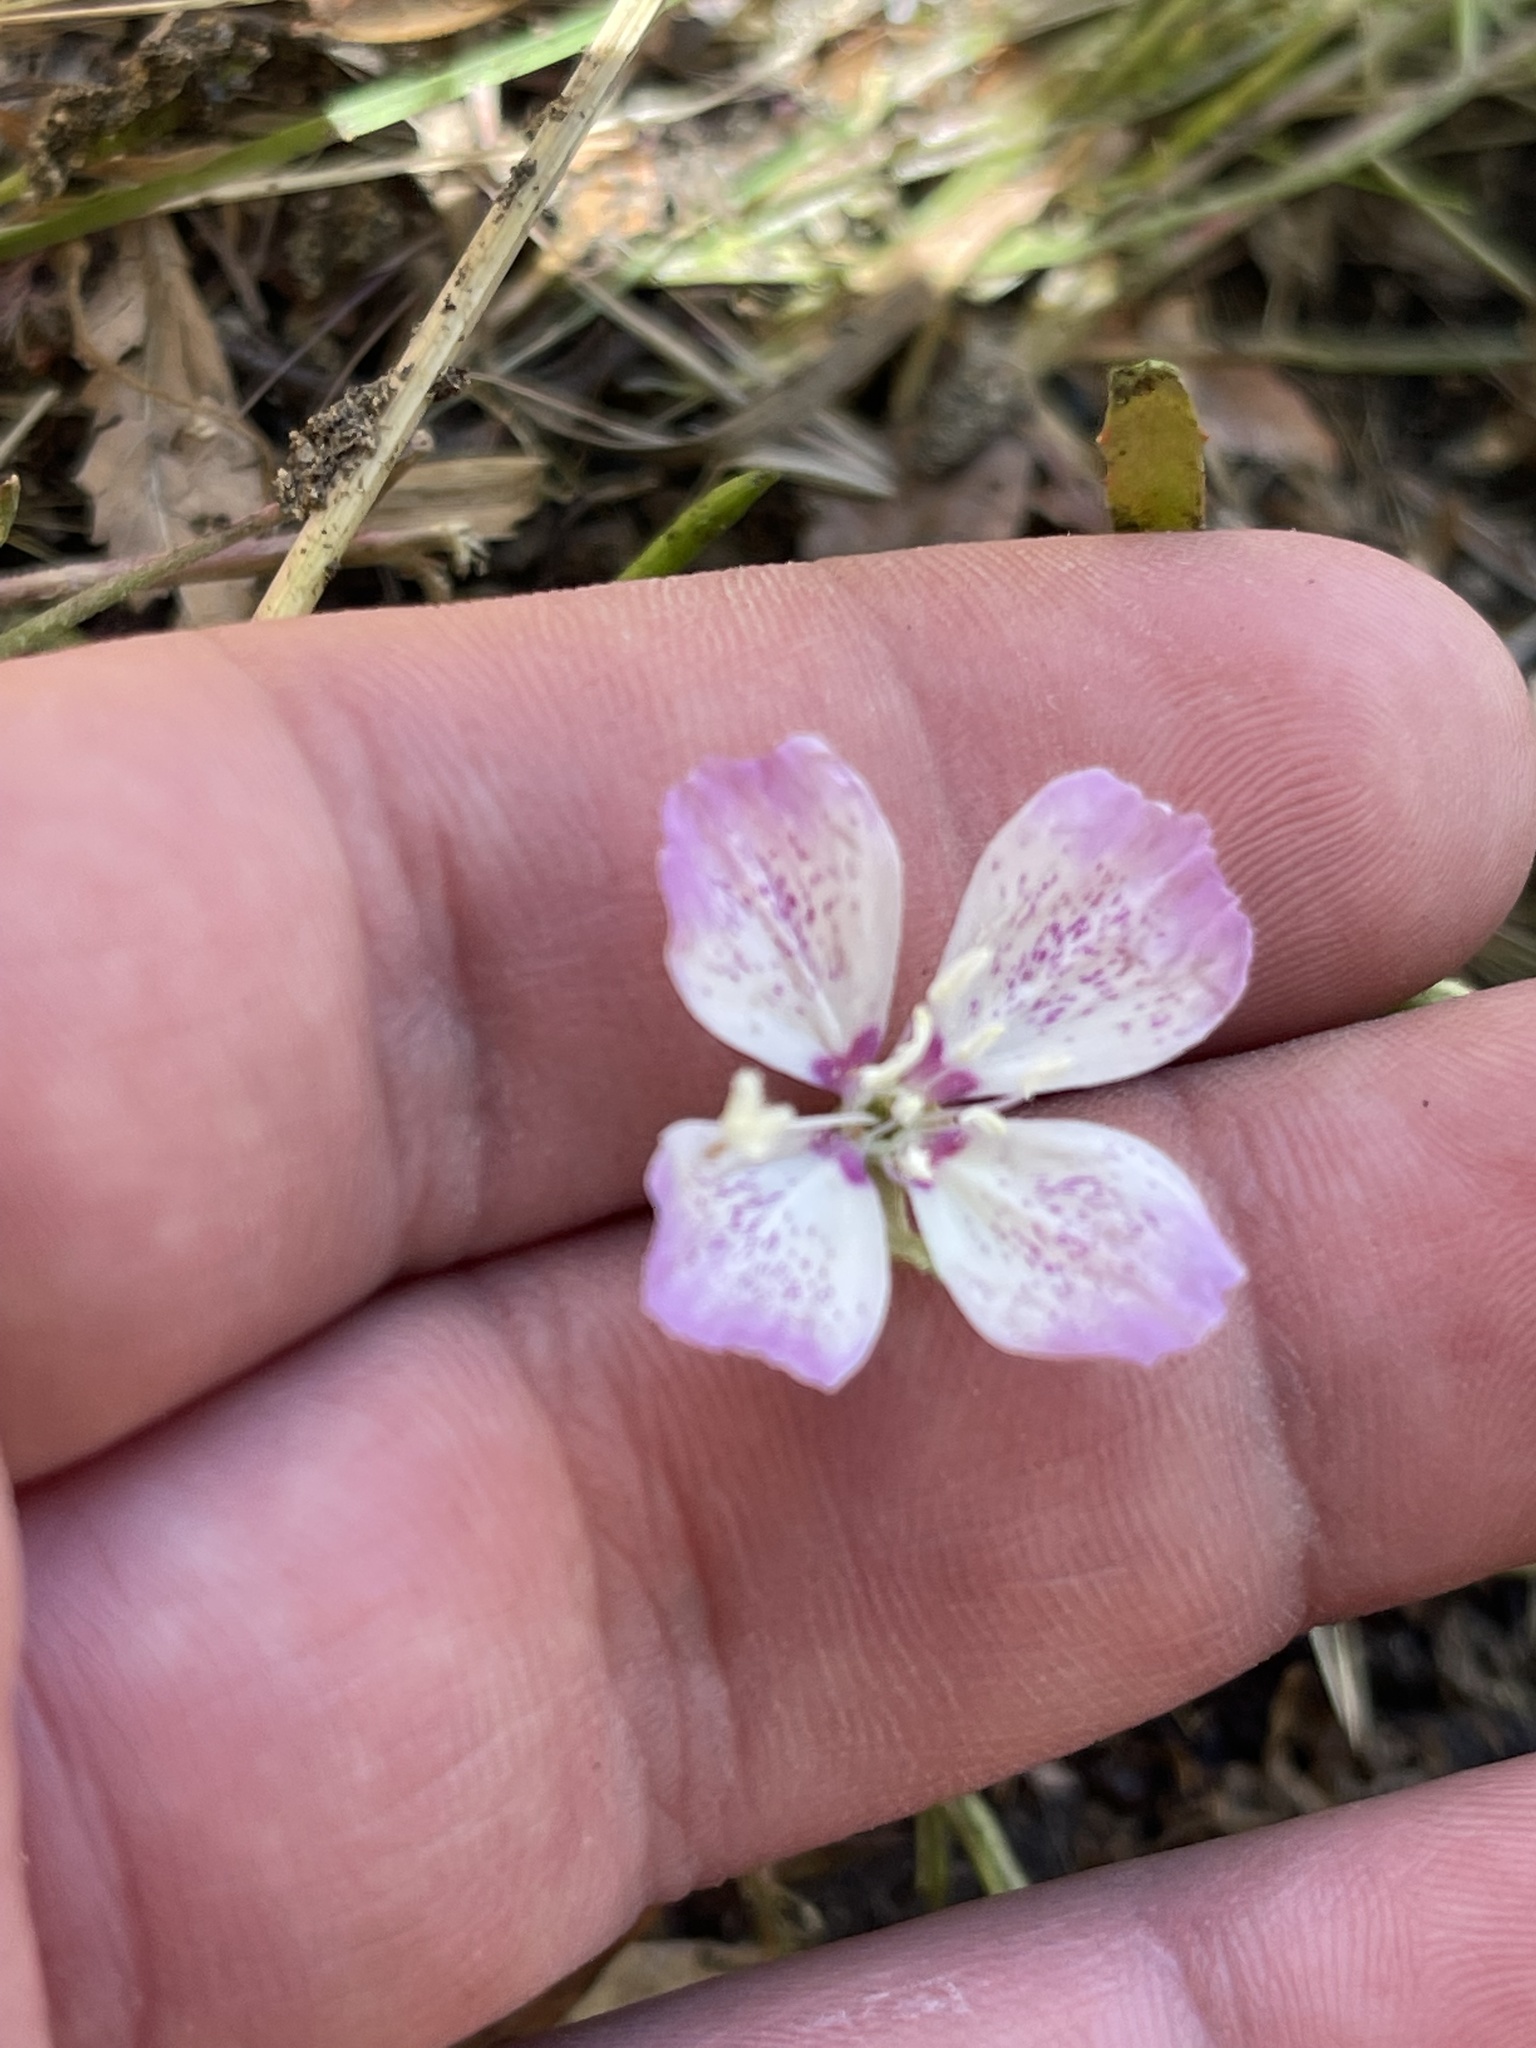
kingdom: Plantae
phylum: Tracheophyta
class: Magnoliopsida
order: Myrtales
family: Onagraceae
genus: Clarkia
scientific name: Clarkia cylindrica
